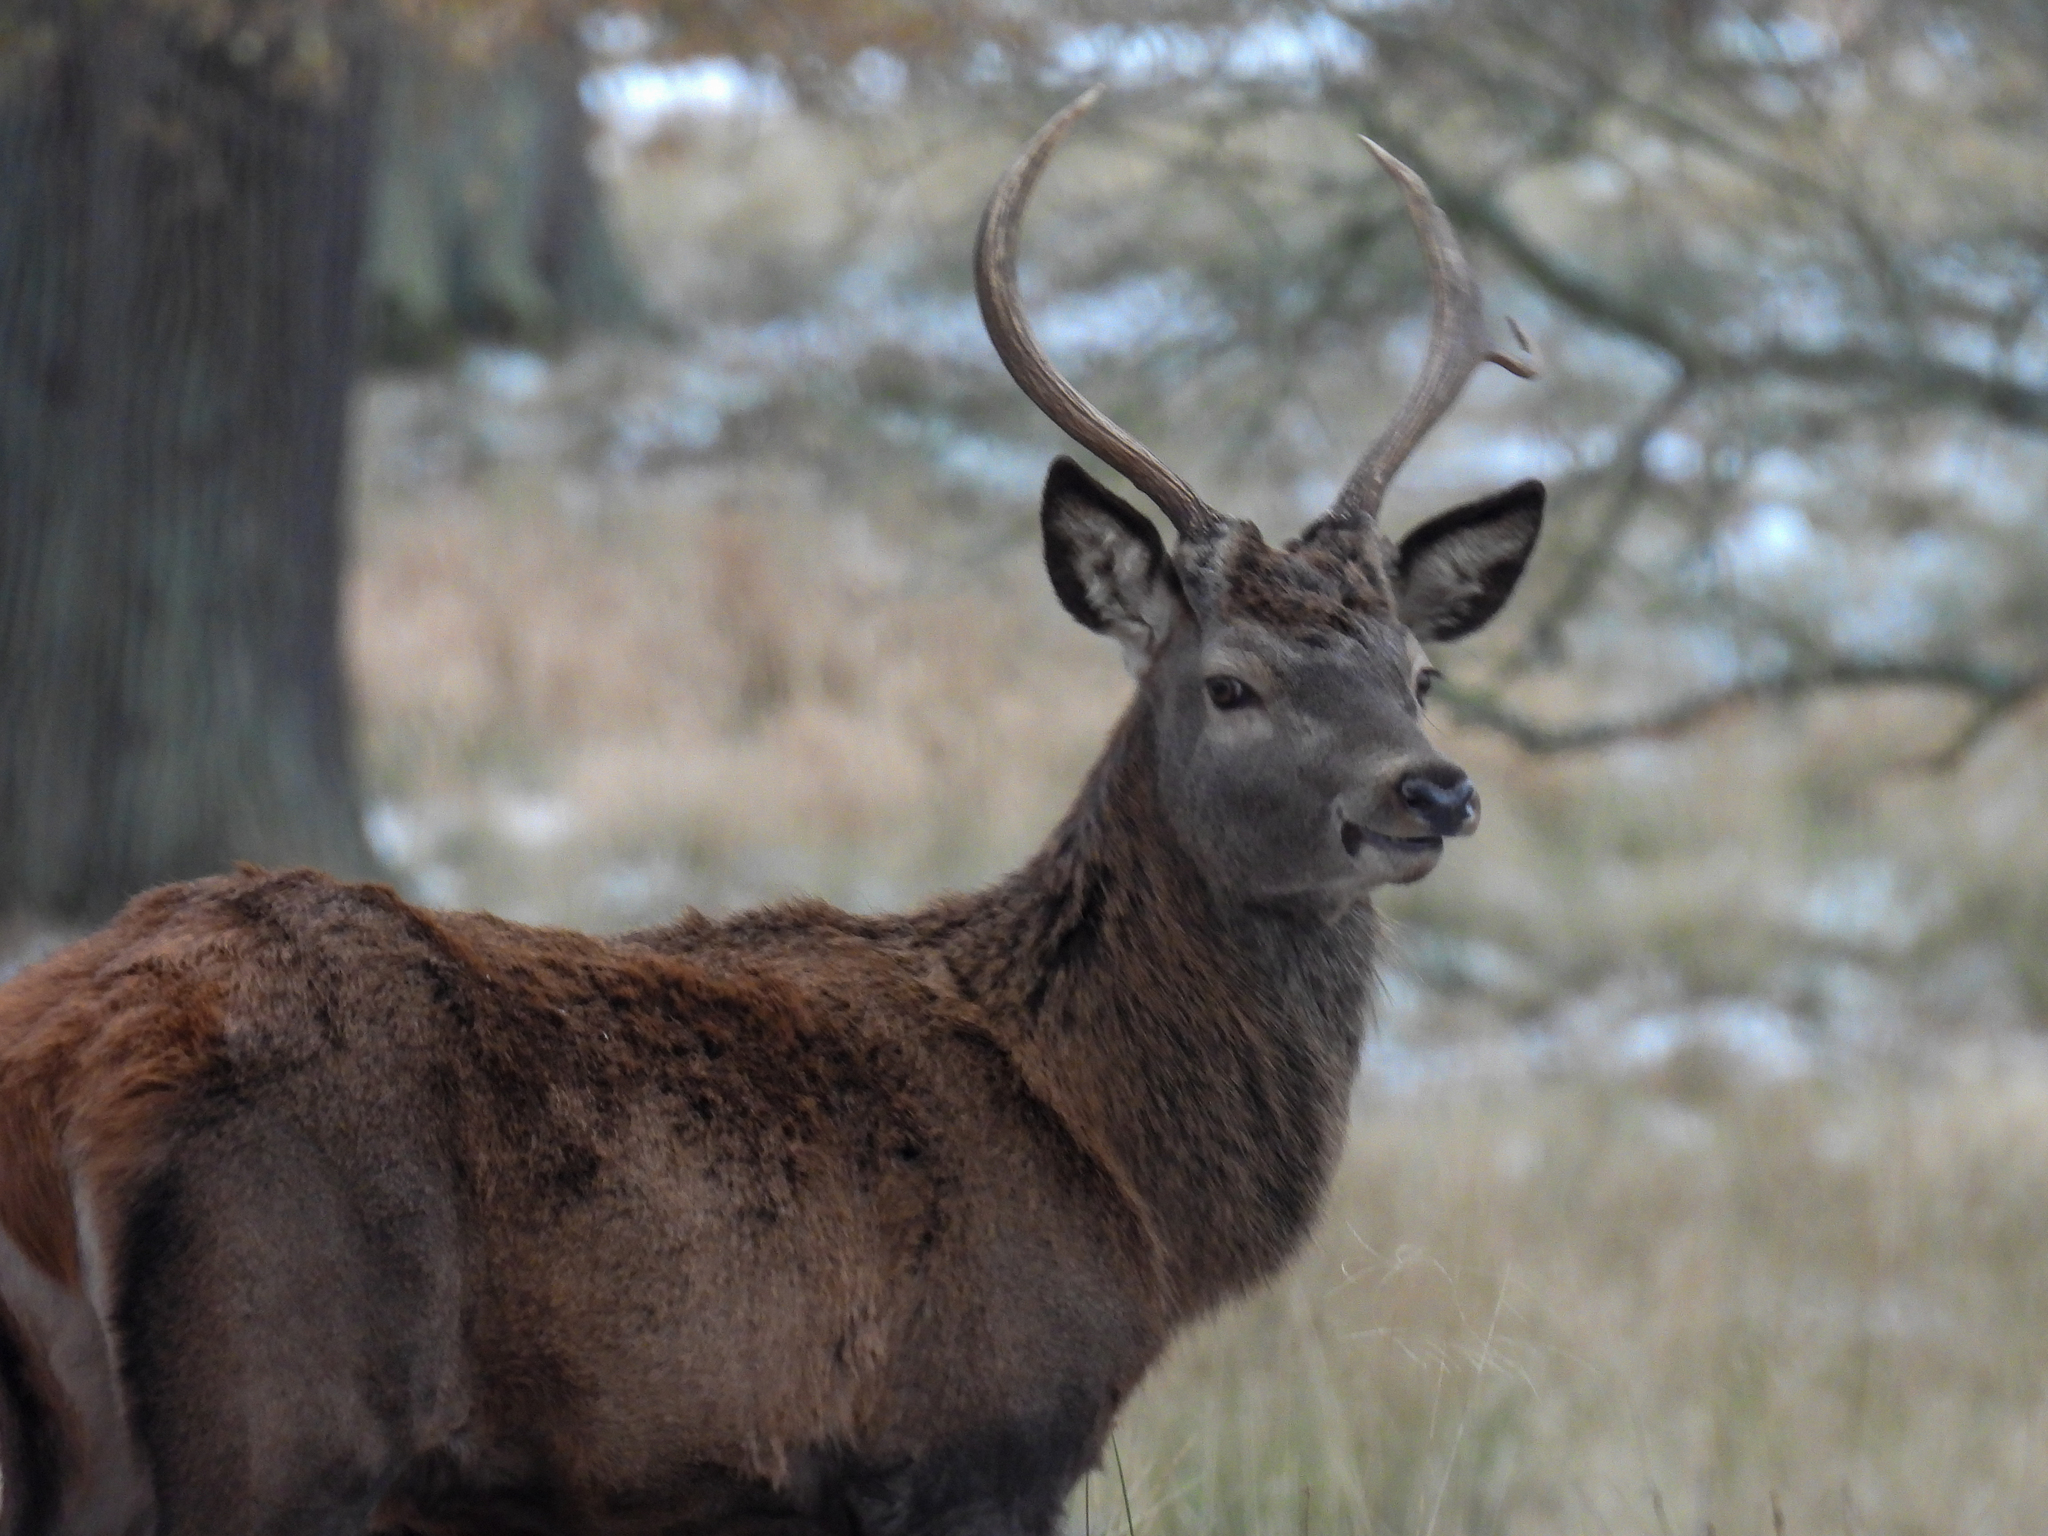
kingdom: Animalia
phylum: Chordata
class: Mammalia
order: Artiodactyla
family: Cervidae
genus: Cervus
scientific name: Cervus elaphus
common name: Red deer
